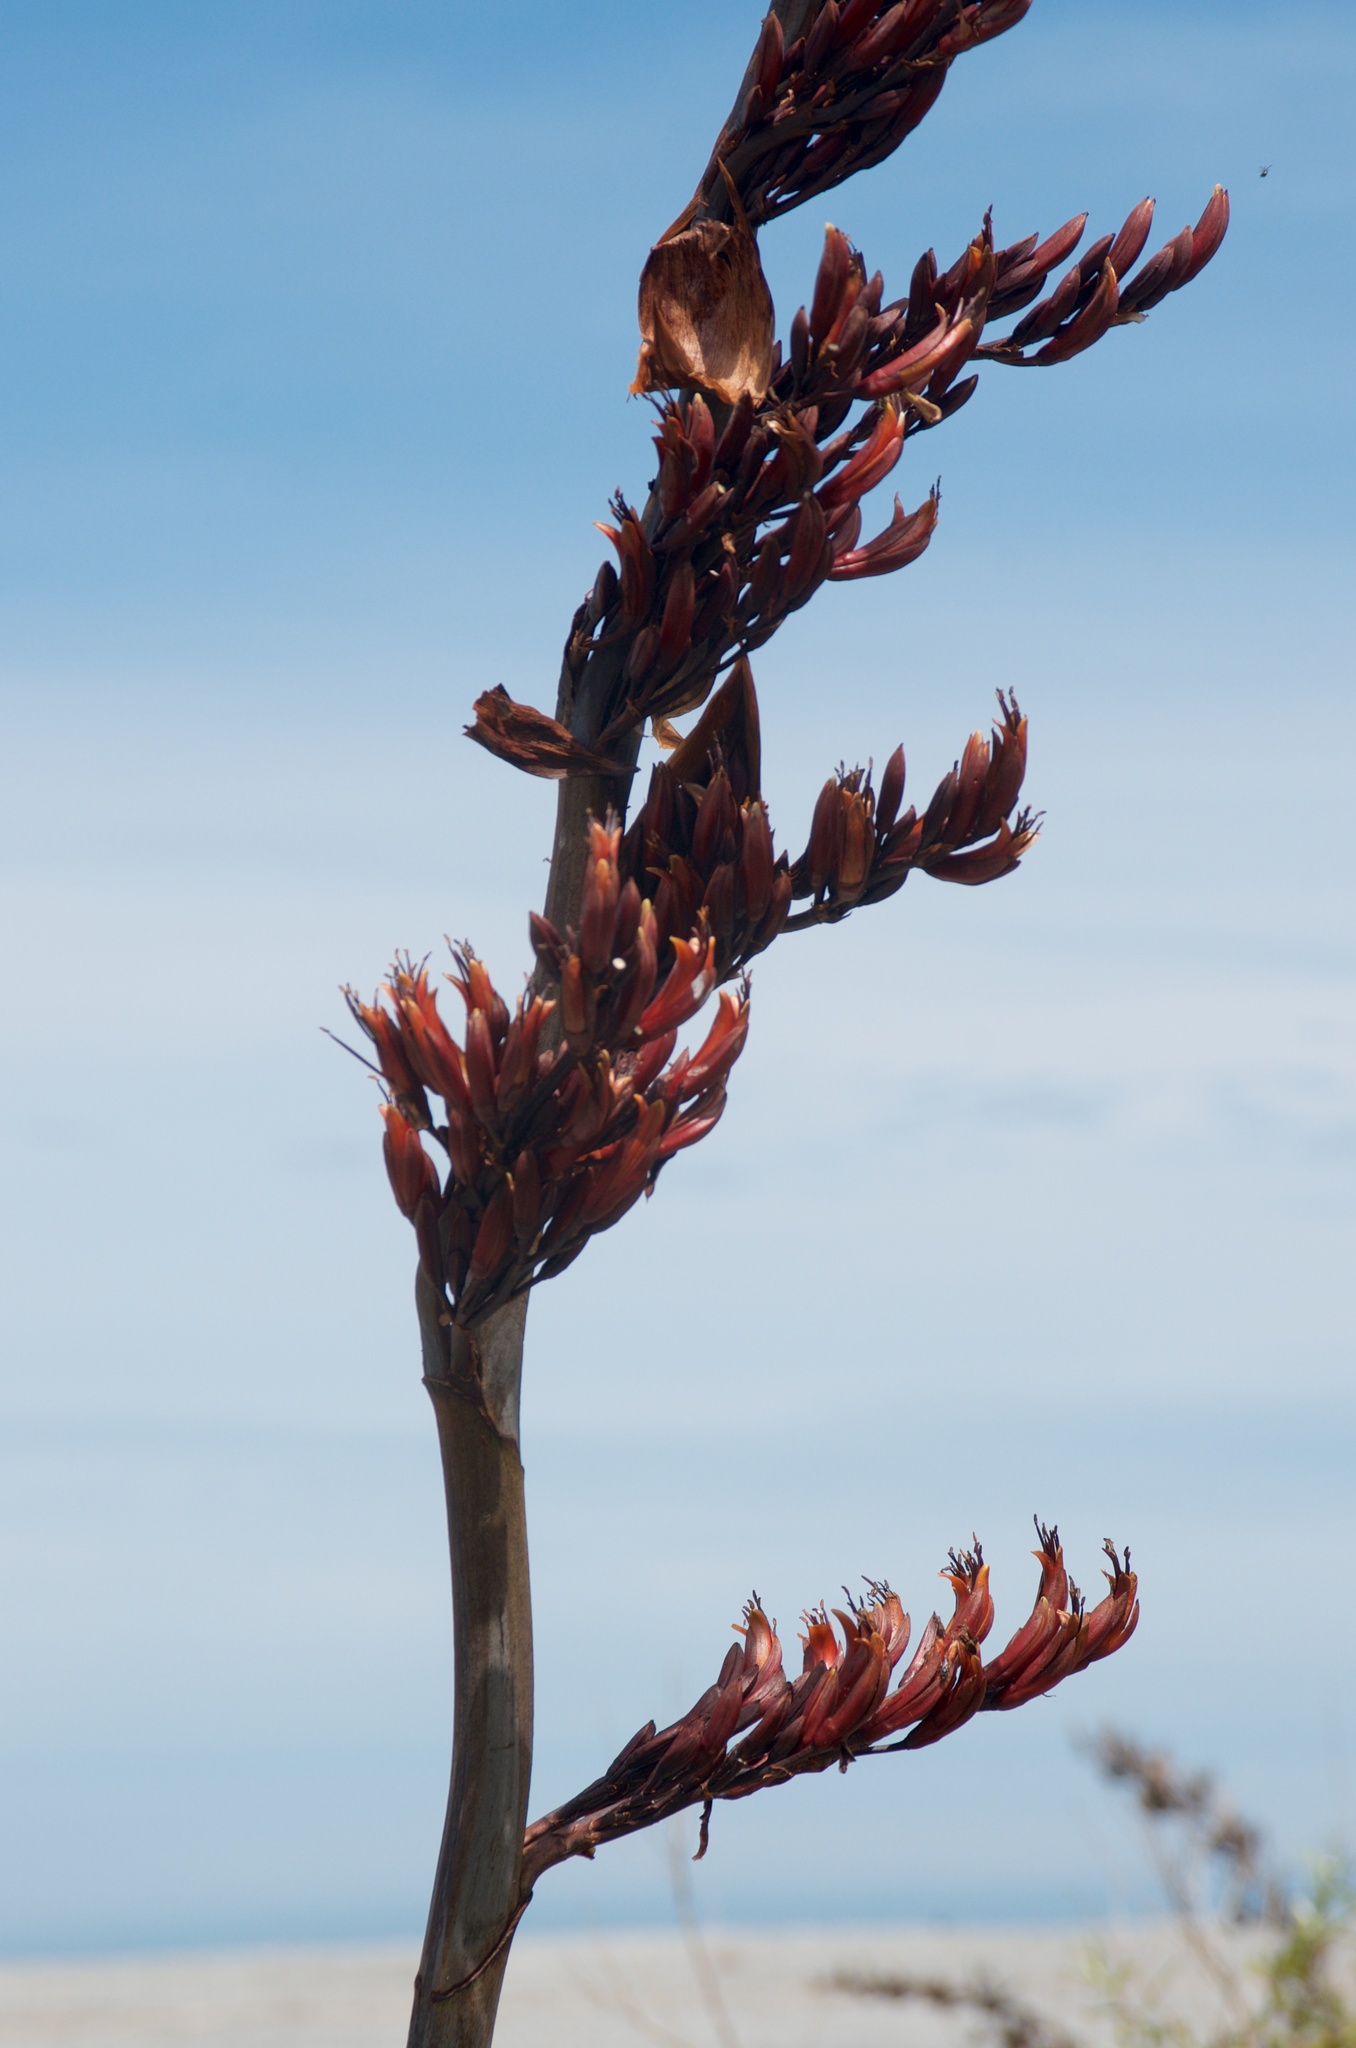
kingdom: Plantae
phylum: Tracheophyta
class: Liliopsida
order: Asparagales
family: Asphodelaceae
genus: Phormium
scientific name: Phormium tenax
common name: New zealand flax
